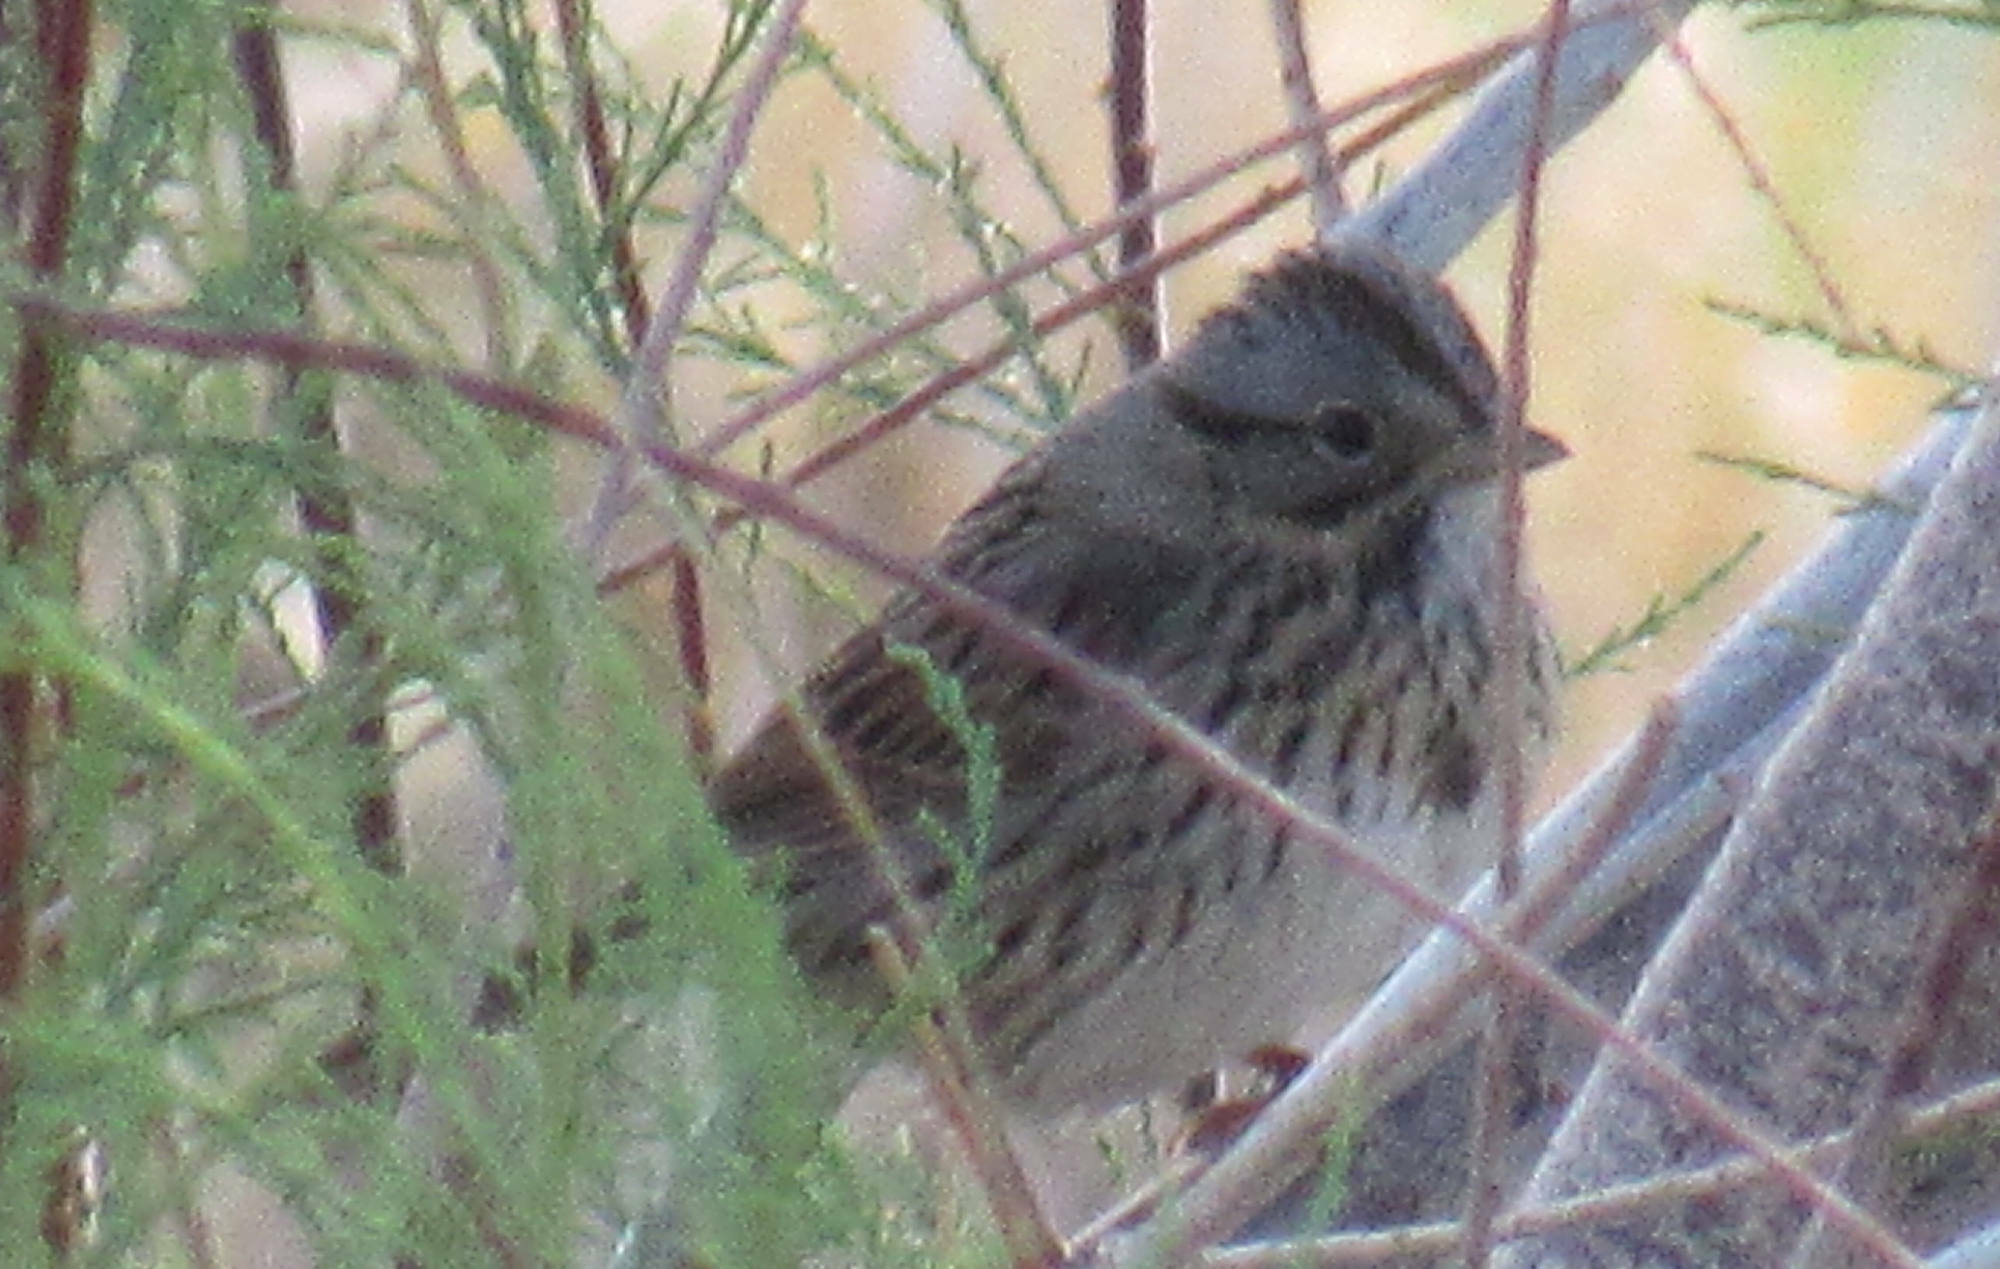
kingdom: Animalia
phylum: Chordata
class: Aves
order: Passeriformes
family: Passerellidae
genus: Melospiza
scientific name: Melospiza lincolnii
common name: Lincoln's sparrow
